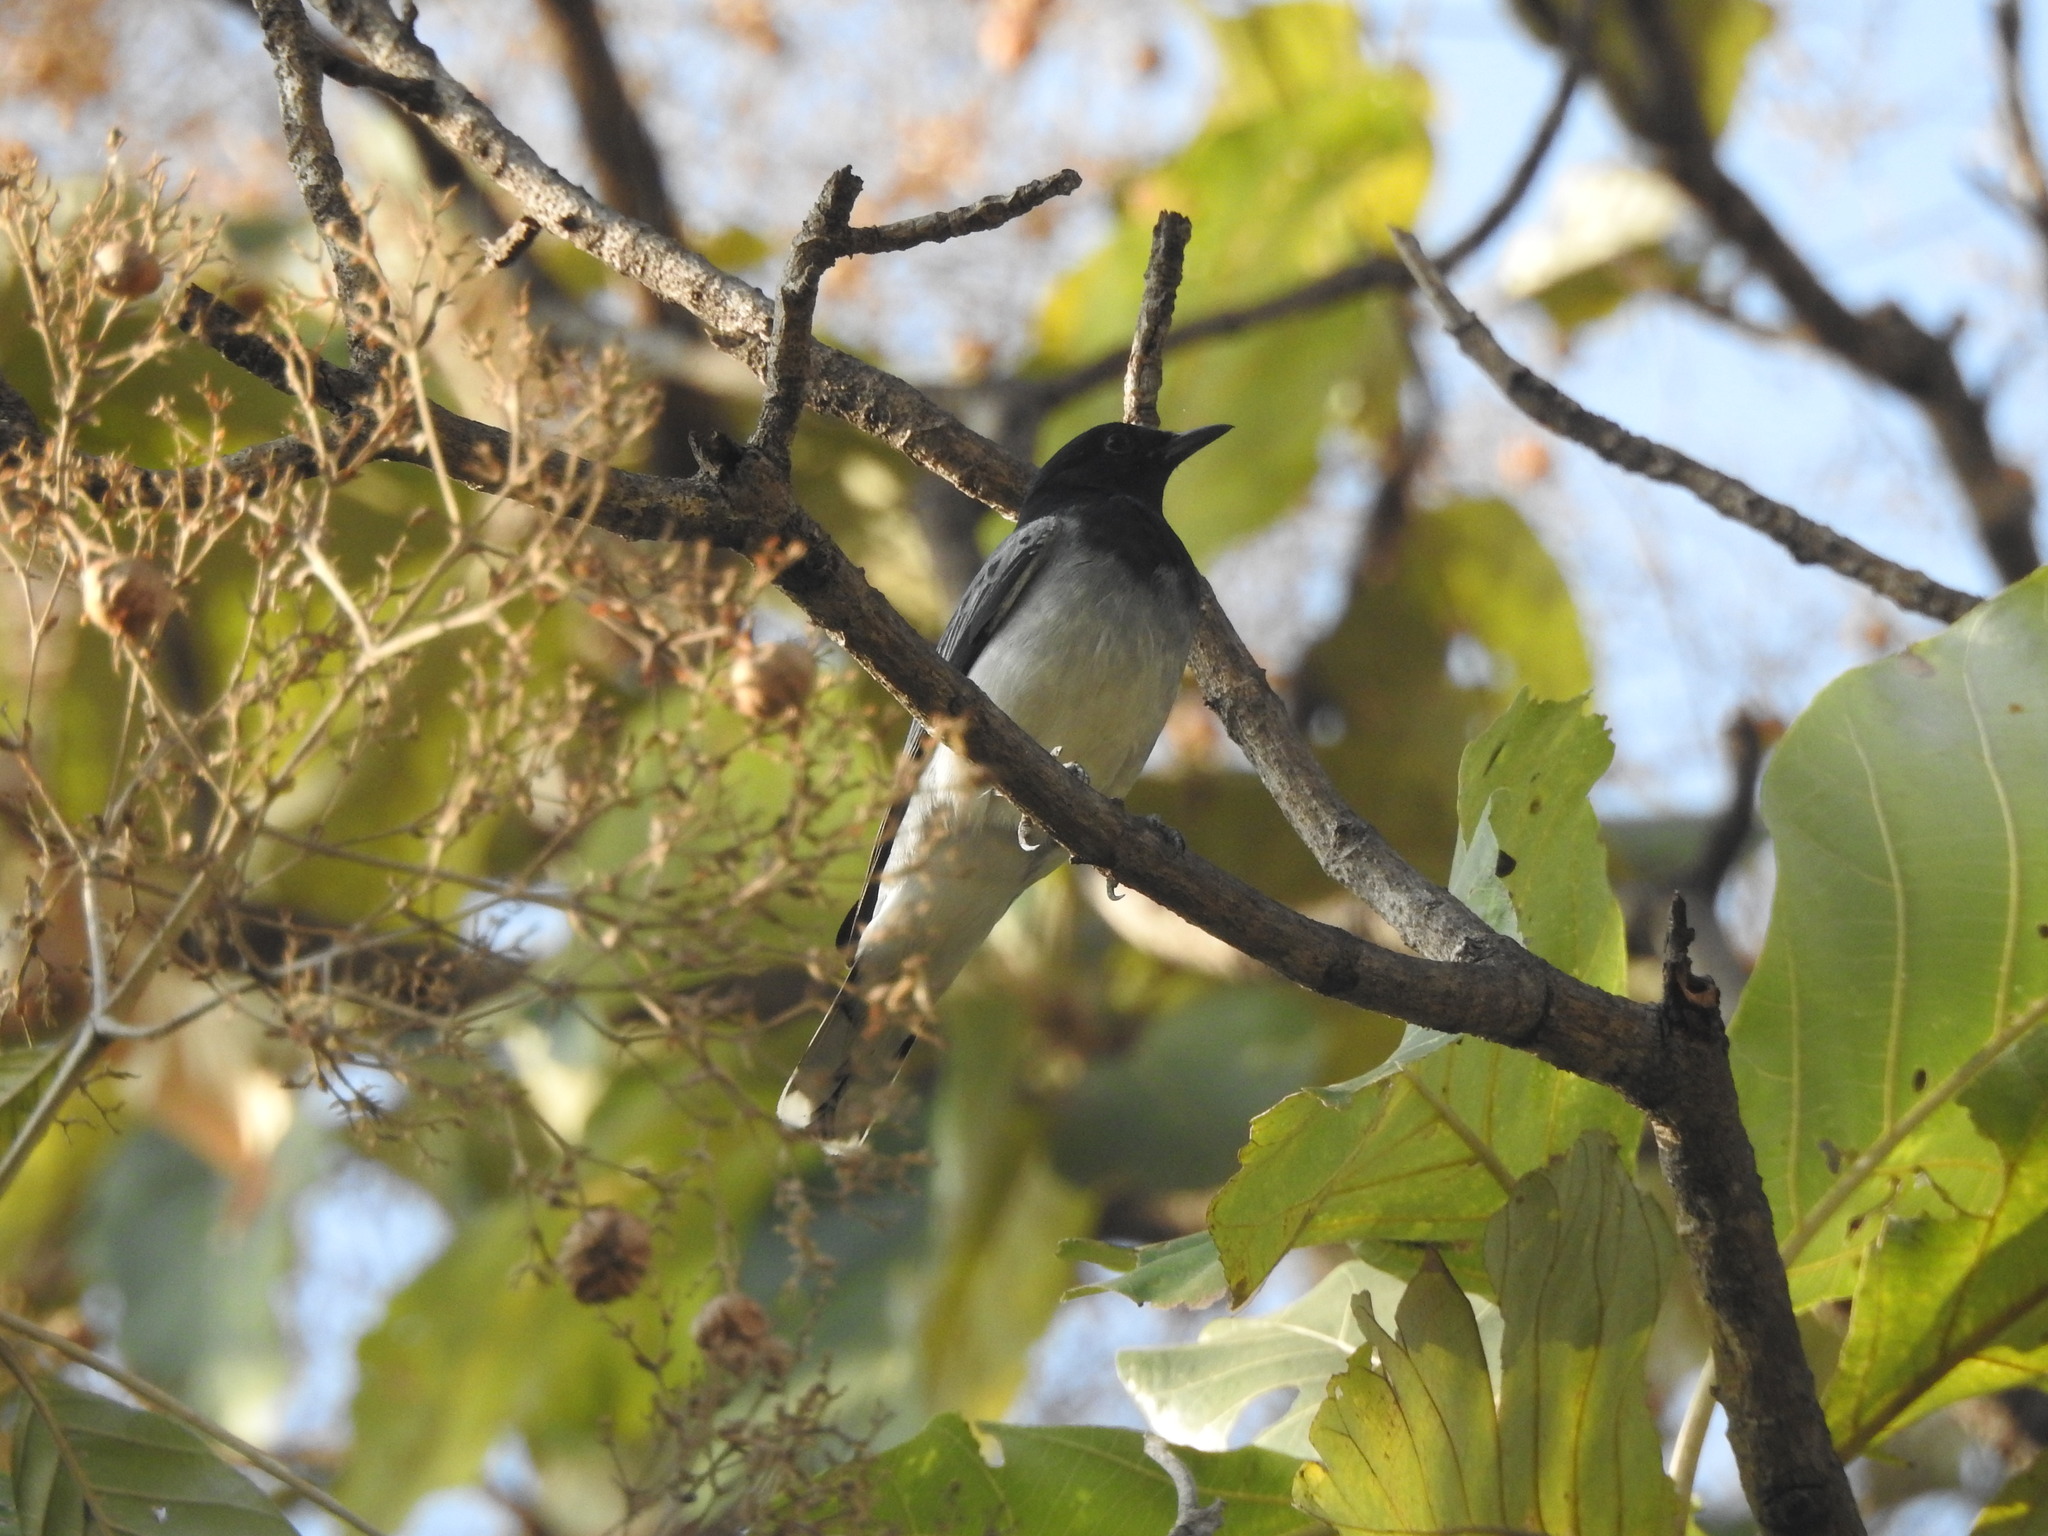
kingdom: Animalia
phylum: Chordata
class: Aves
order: Passeriformes
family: Campephagidae
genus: Coracina
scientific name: Coracina melanoptera
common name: Black-headed cuckooshrike
